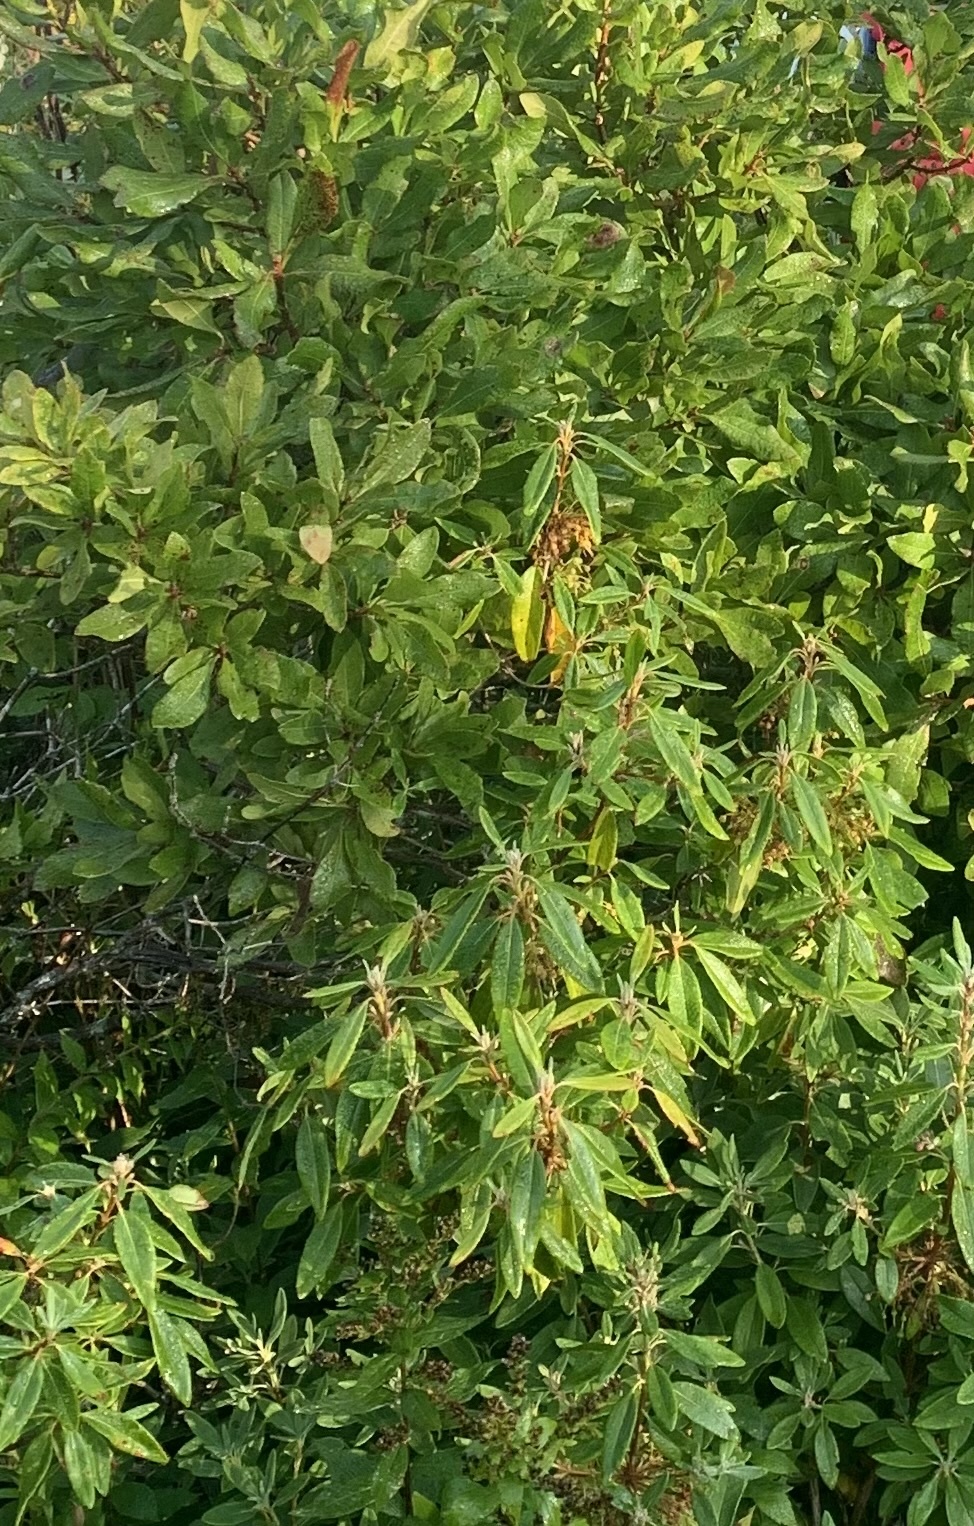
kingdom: Plantae
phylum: Tracheophyta
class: Magnoliopsida
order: Ericales
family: Ericaceae
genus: Kalmia
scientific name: Kalmia angustifolia
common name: Sheep-laurel
